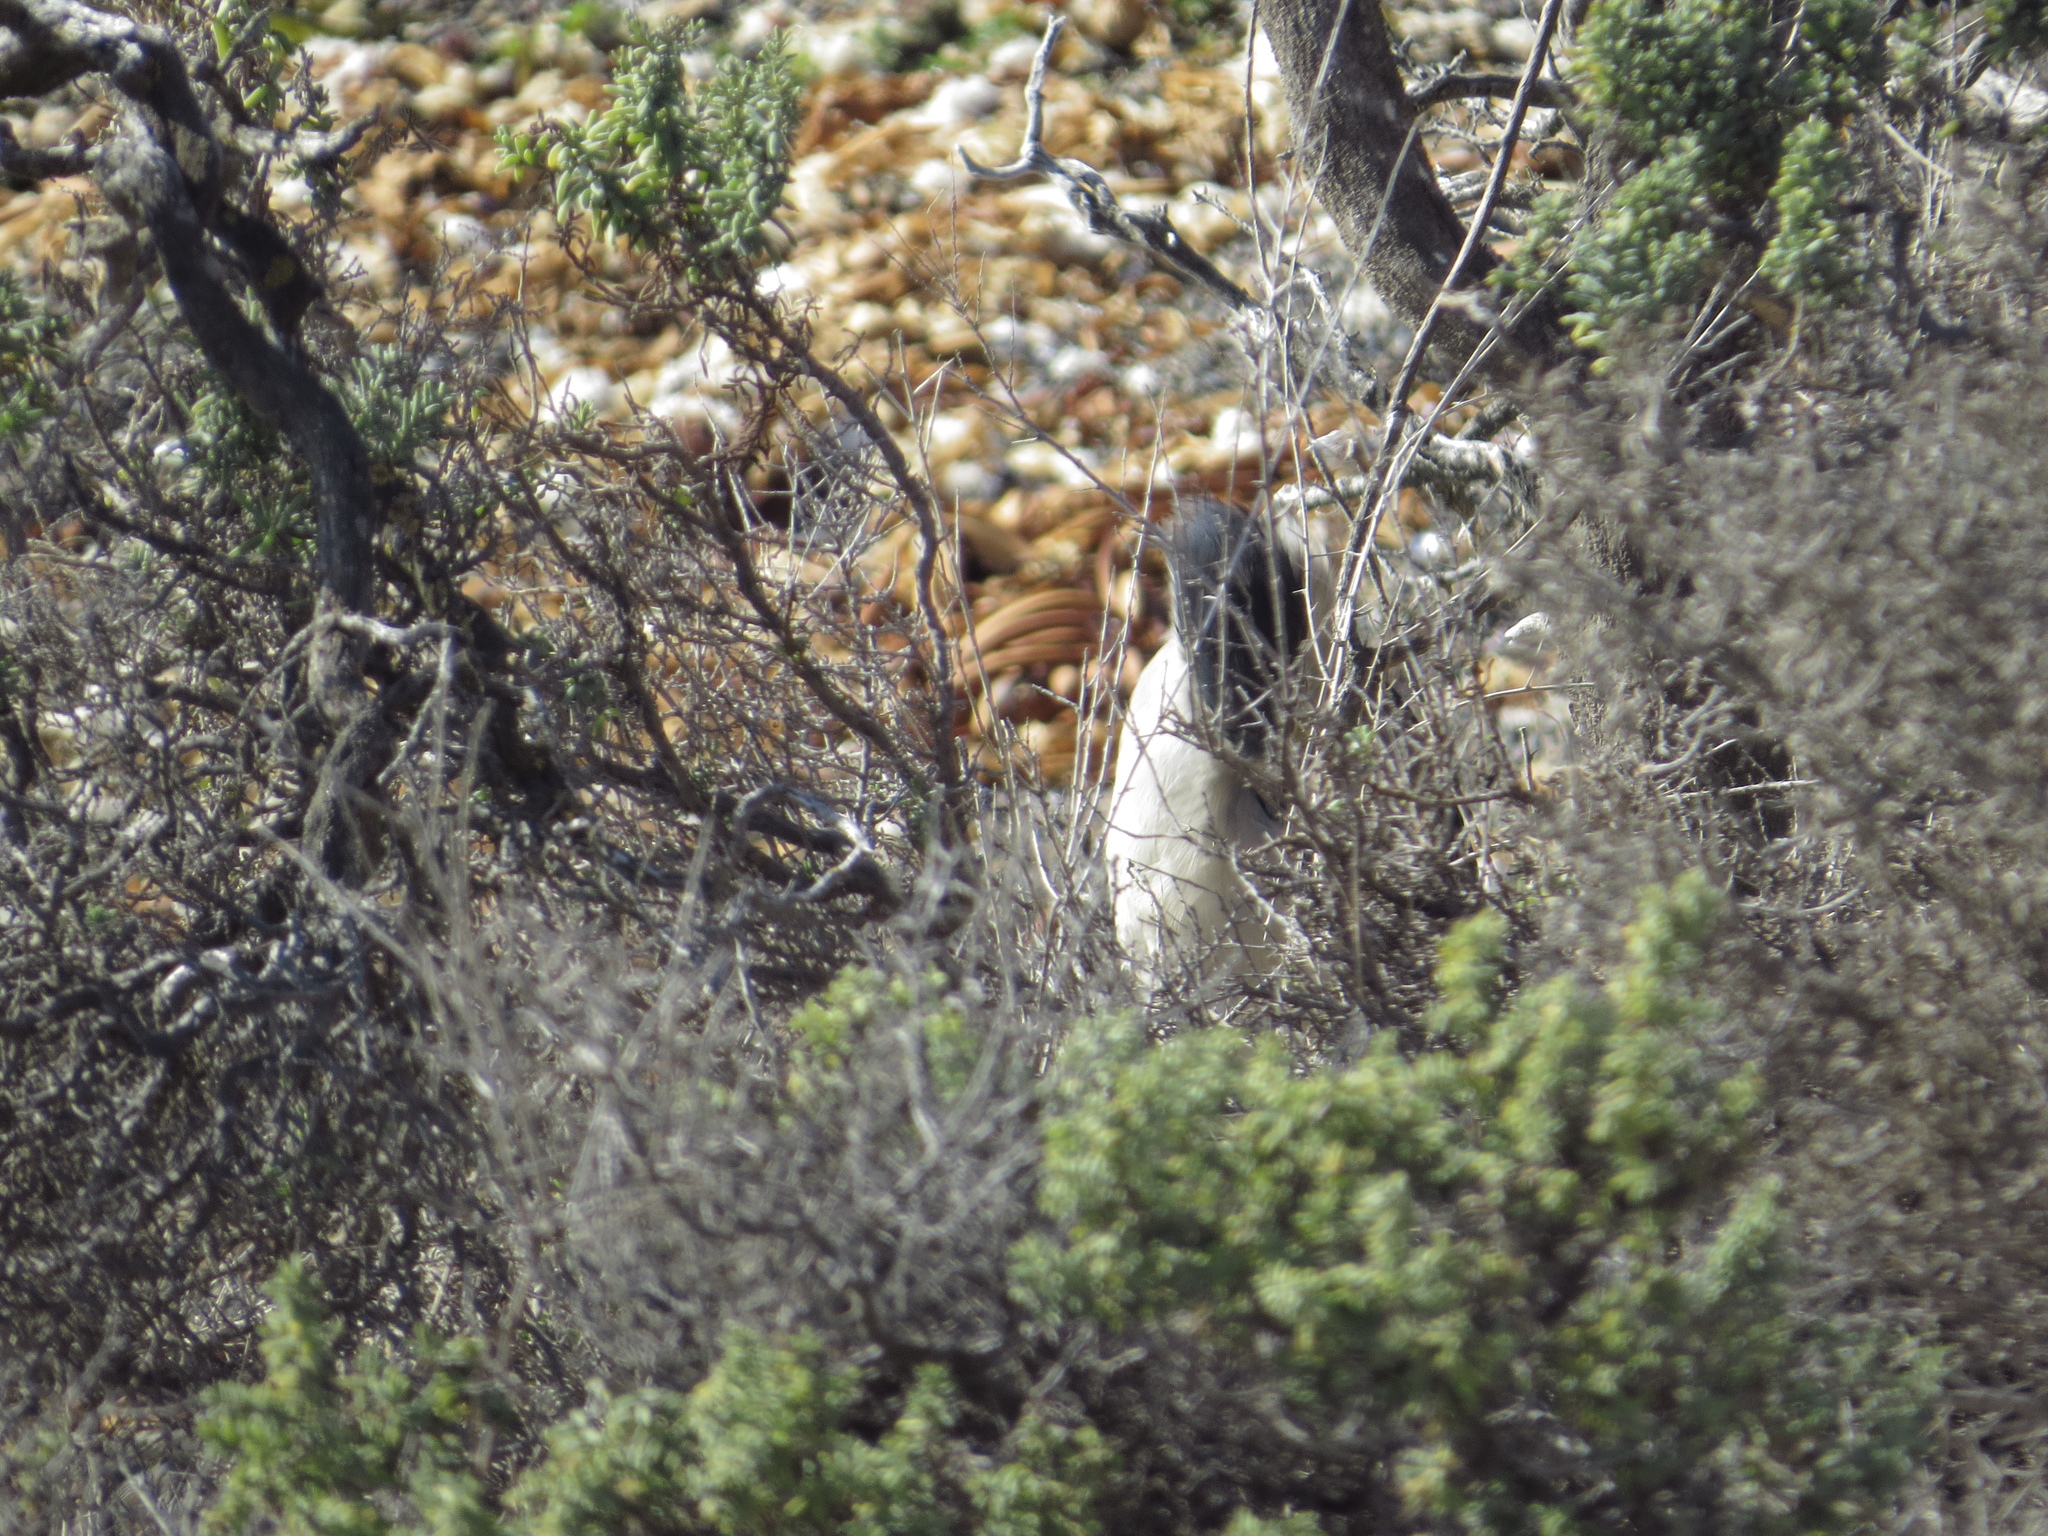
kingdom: Animalia
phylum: Chordata
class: Aves
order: Pelecaniformes
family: Ardeidae
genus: Nycticorax
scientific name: Nycticorax nycticorax
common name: Black-crowned night heron
